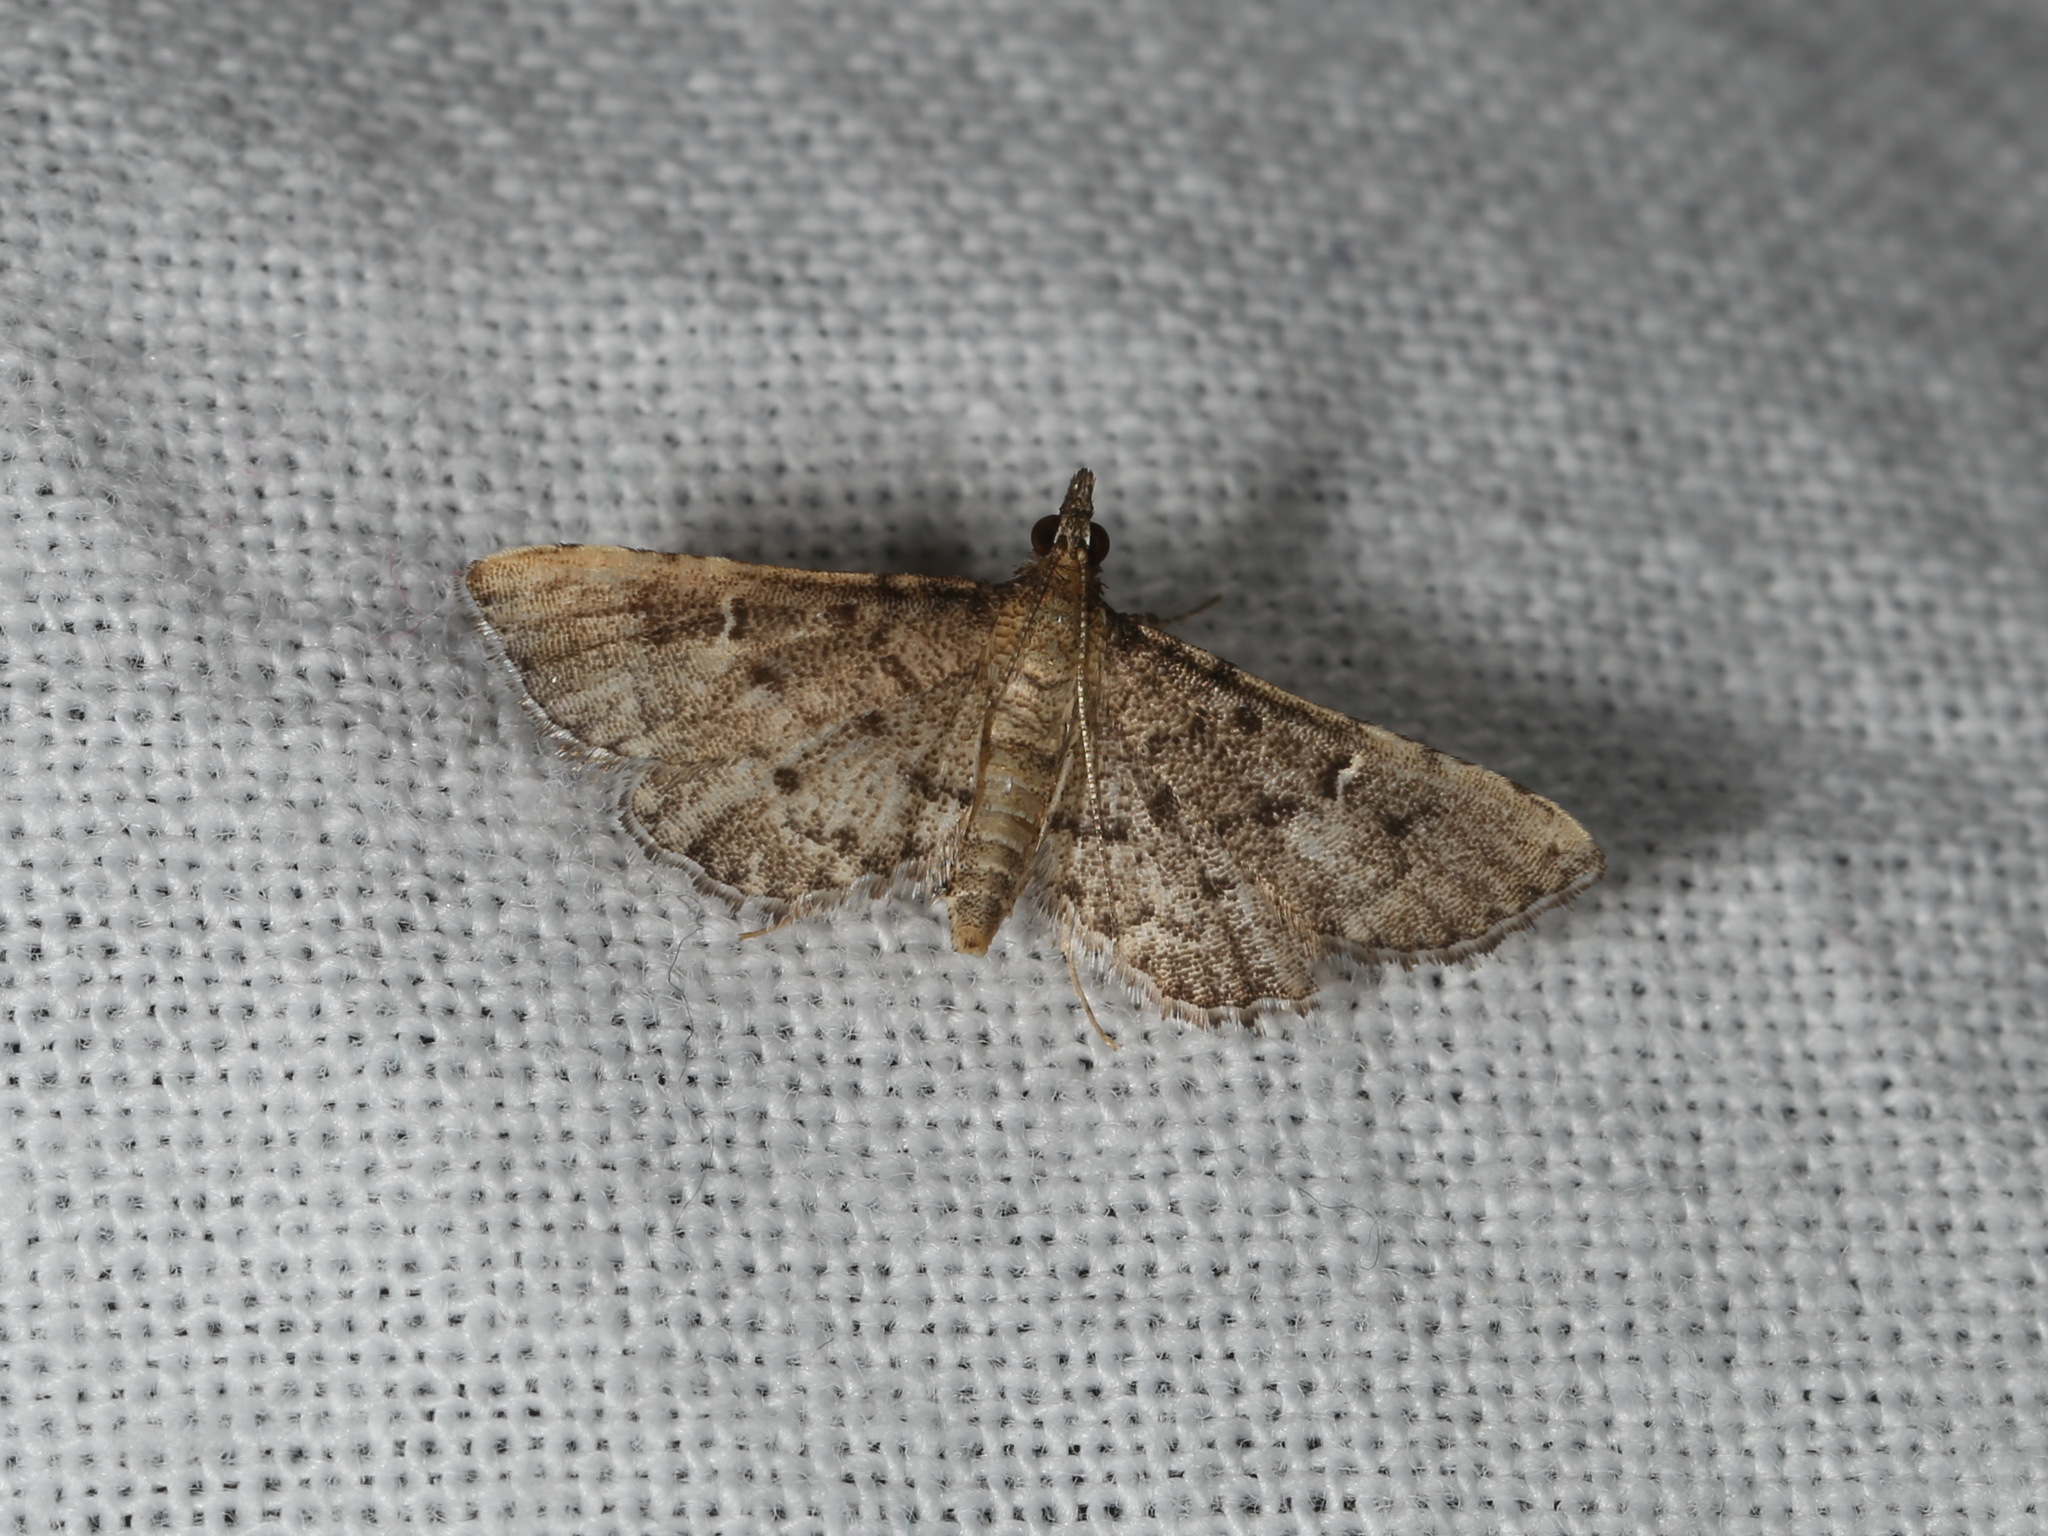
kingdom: Animalia
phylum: Arthropoda
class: Insecta
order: Lepidoptera
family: Crambidae
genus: Metasia
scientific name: Metasia capnochroa
